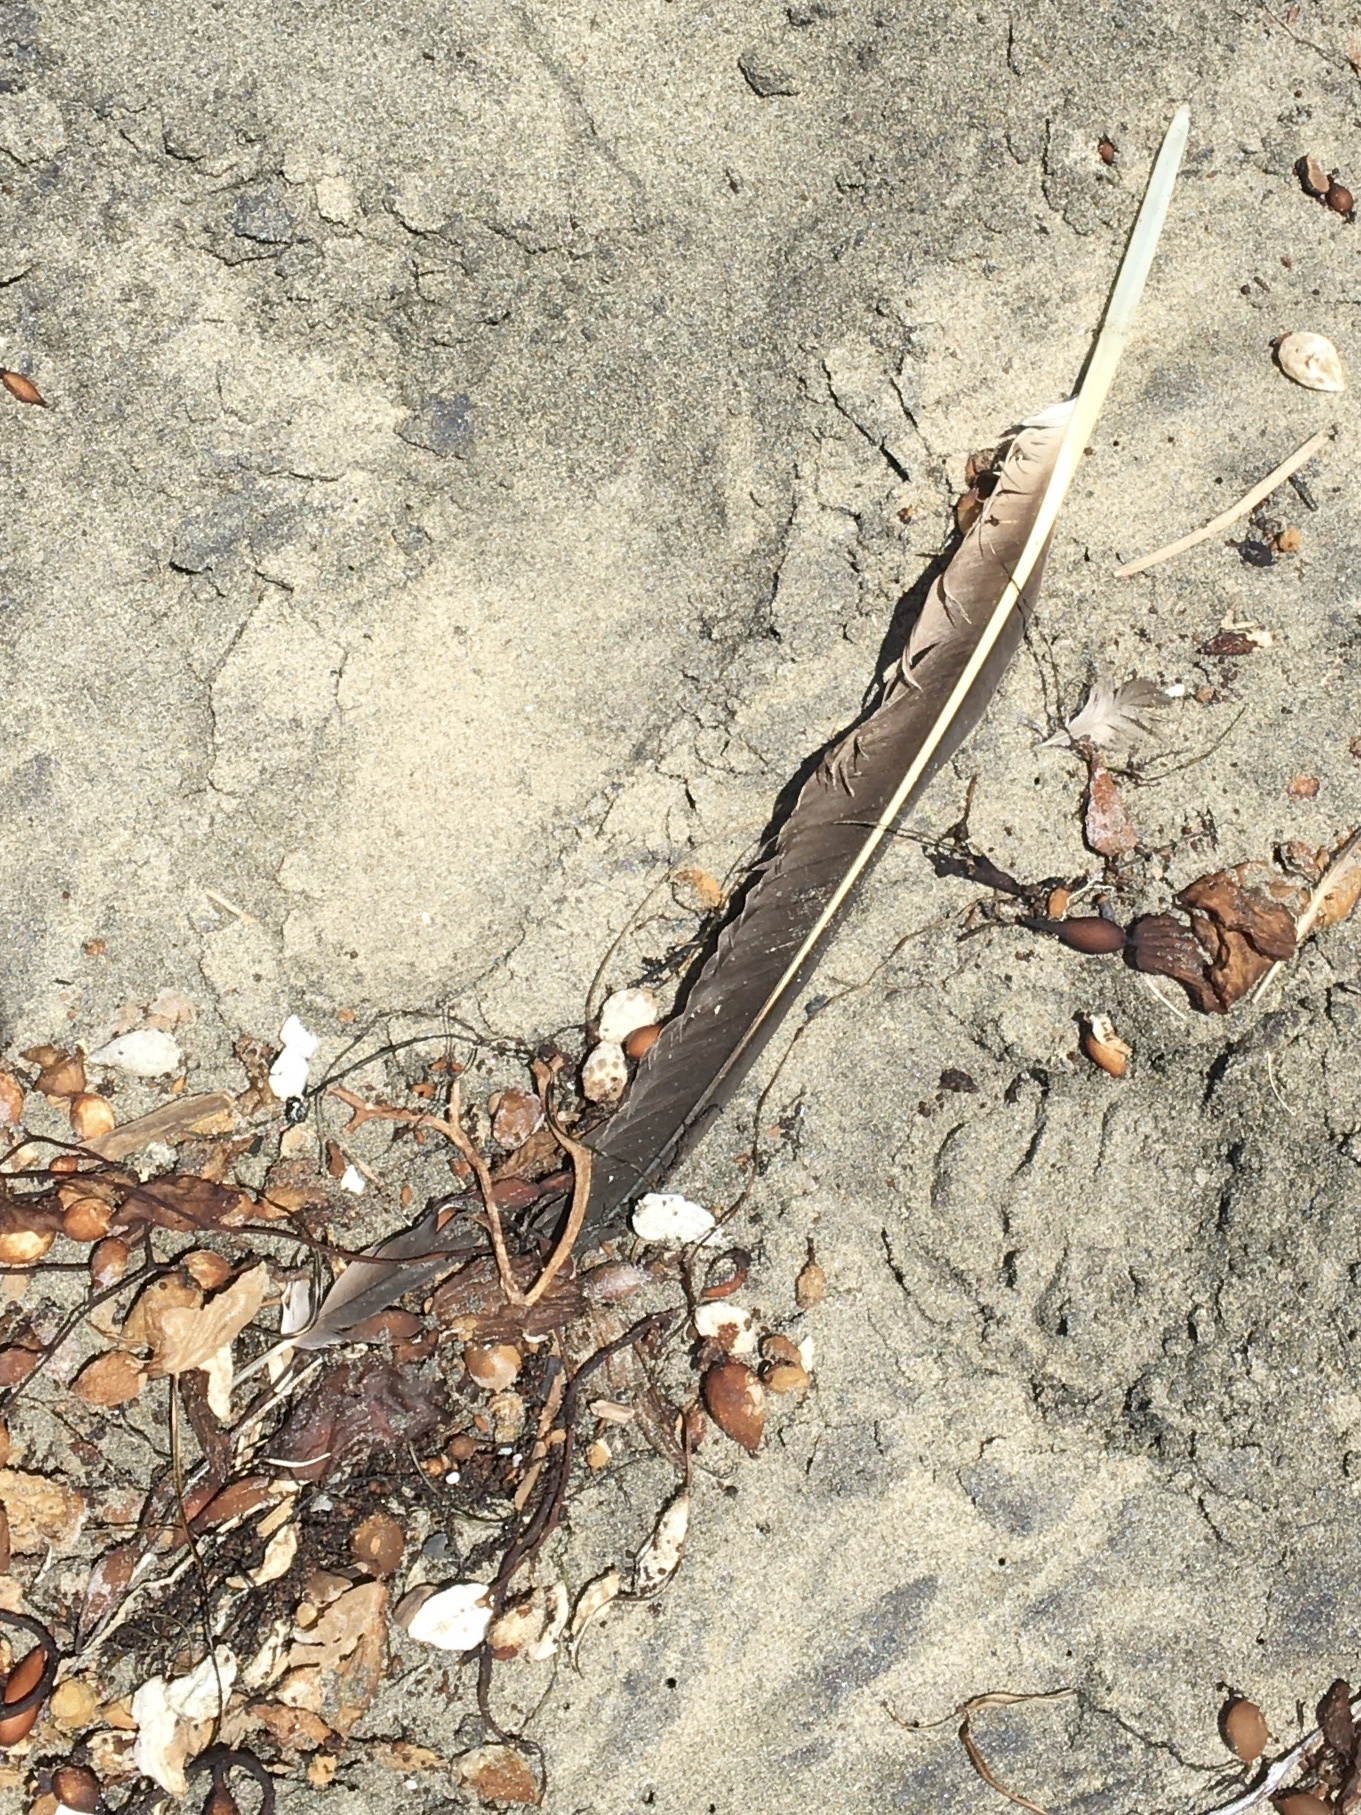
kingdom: Animalia
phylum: Chordata
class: Aves
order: Pelecaniformes
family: Pelecanidae
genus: Pelecanus
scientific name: Pelecanus occidentalis
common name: Brown pelican
